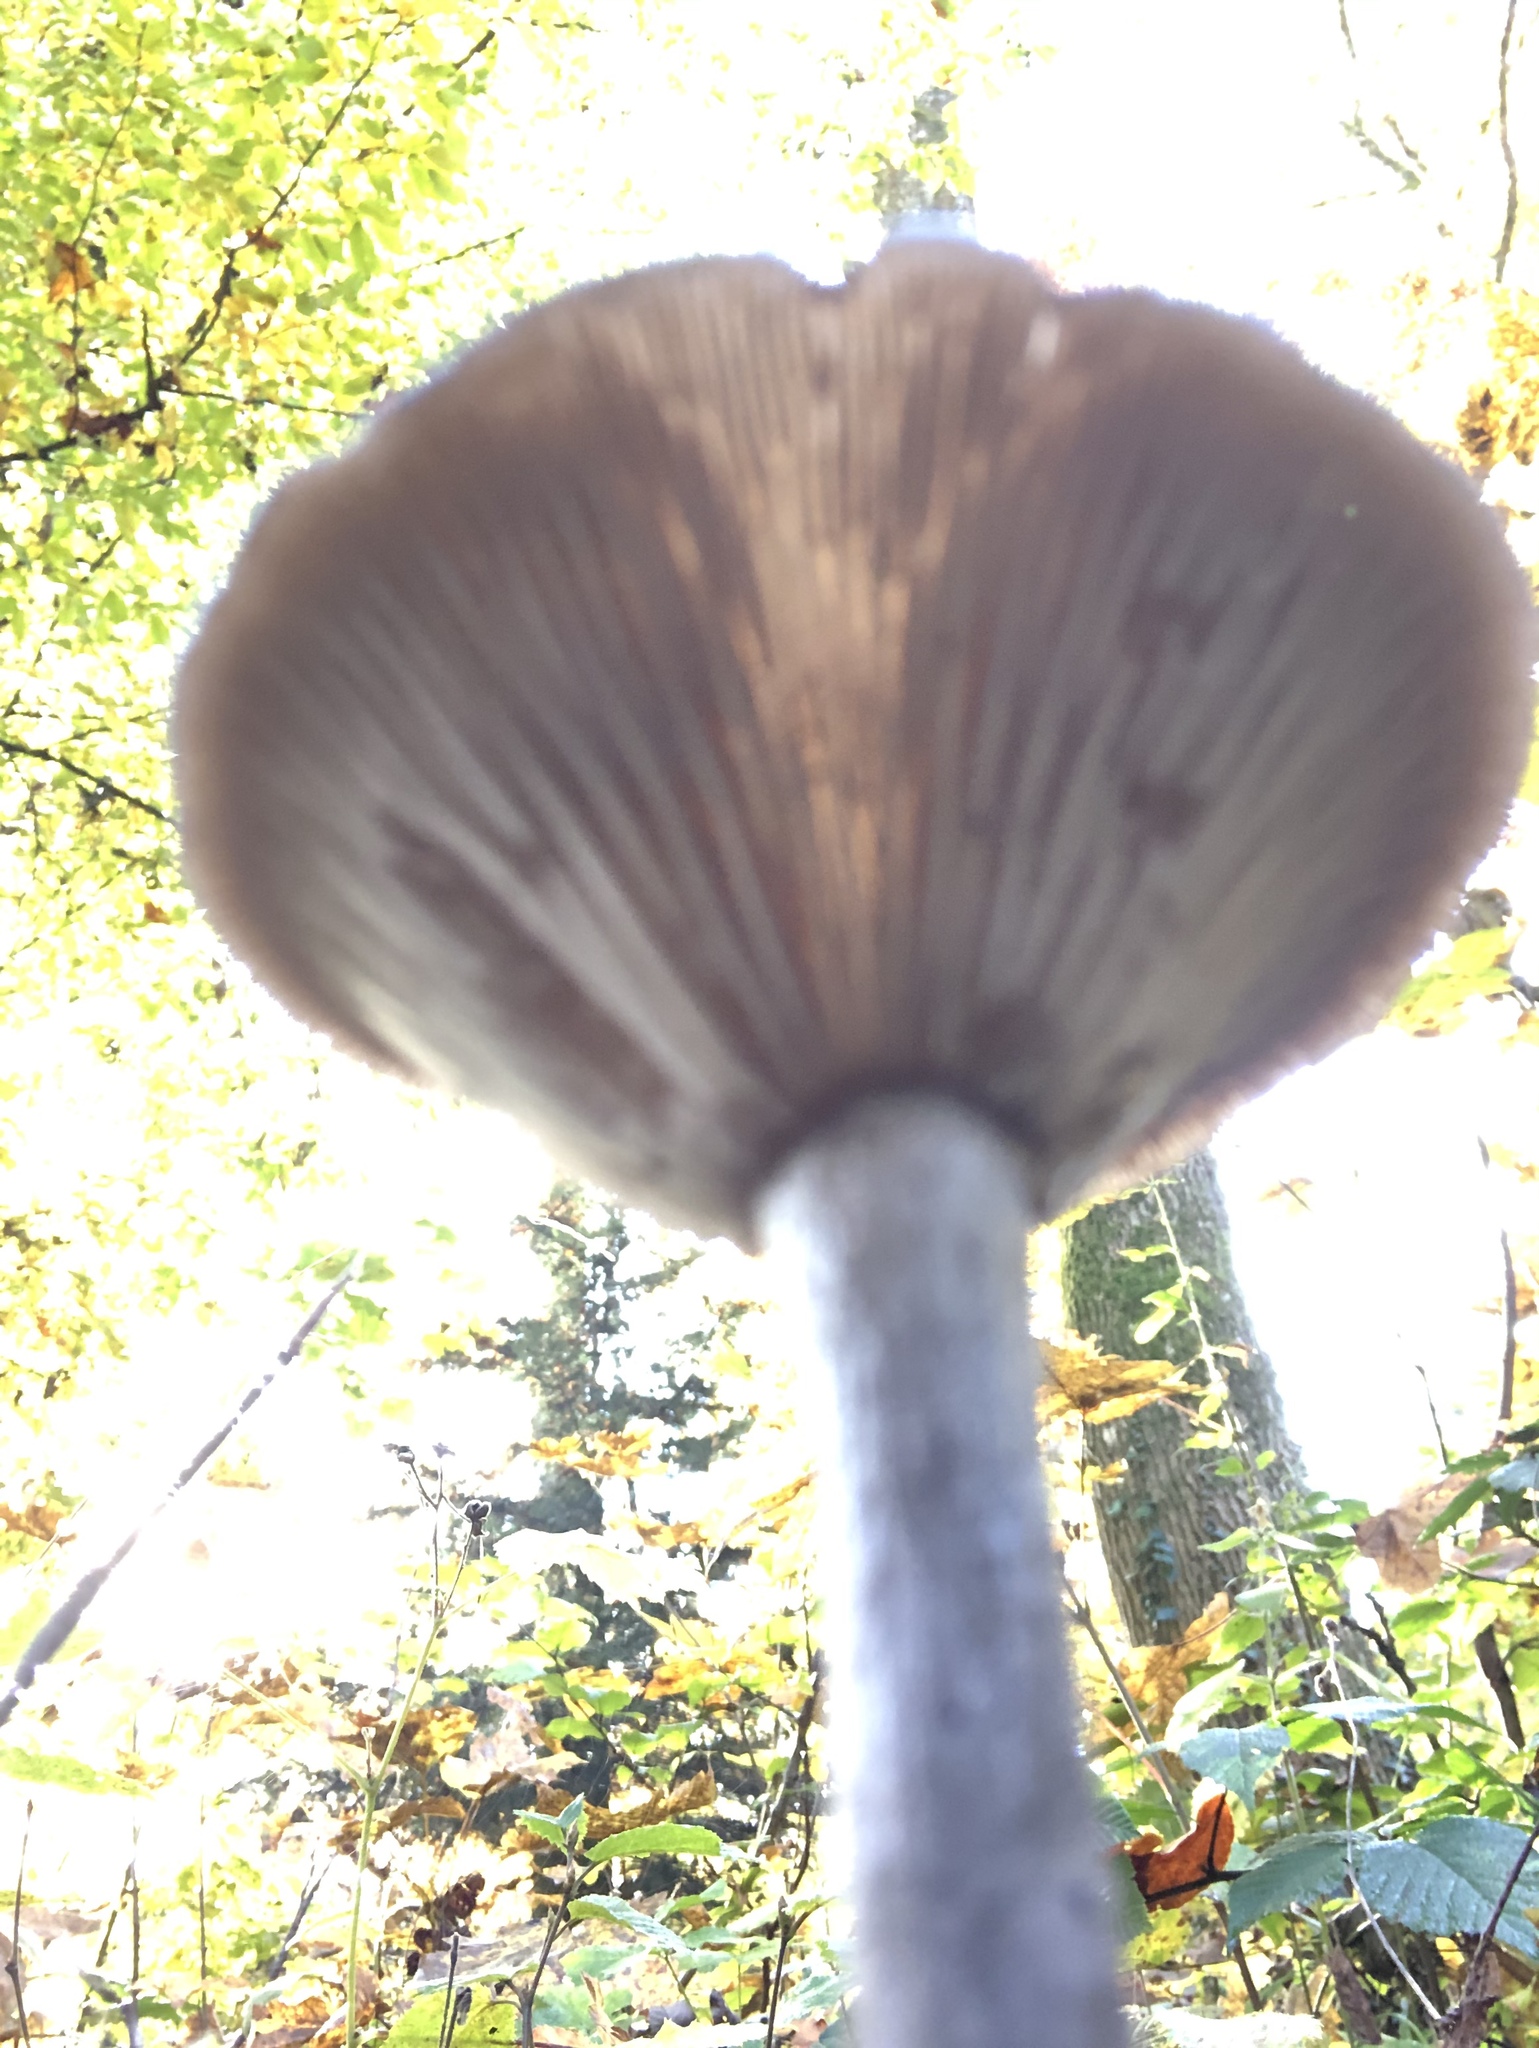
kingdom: Fungi
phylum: Basidiomycota
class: Agaricomycetes
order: Agaricales
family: Pseudoclitocybaceae
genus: Pseudoclitocybe
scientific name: Pseudoclitocybe cyathiformis
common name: Goblet
